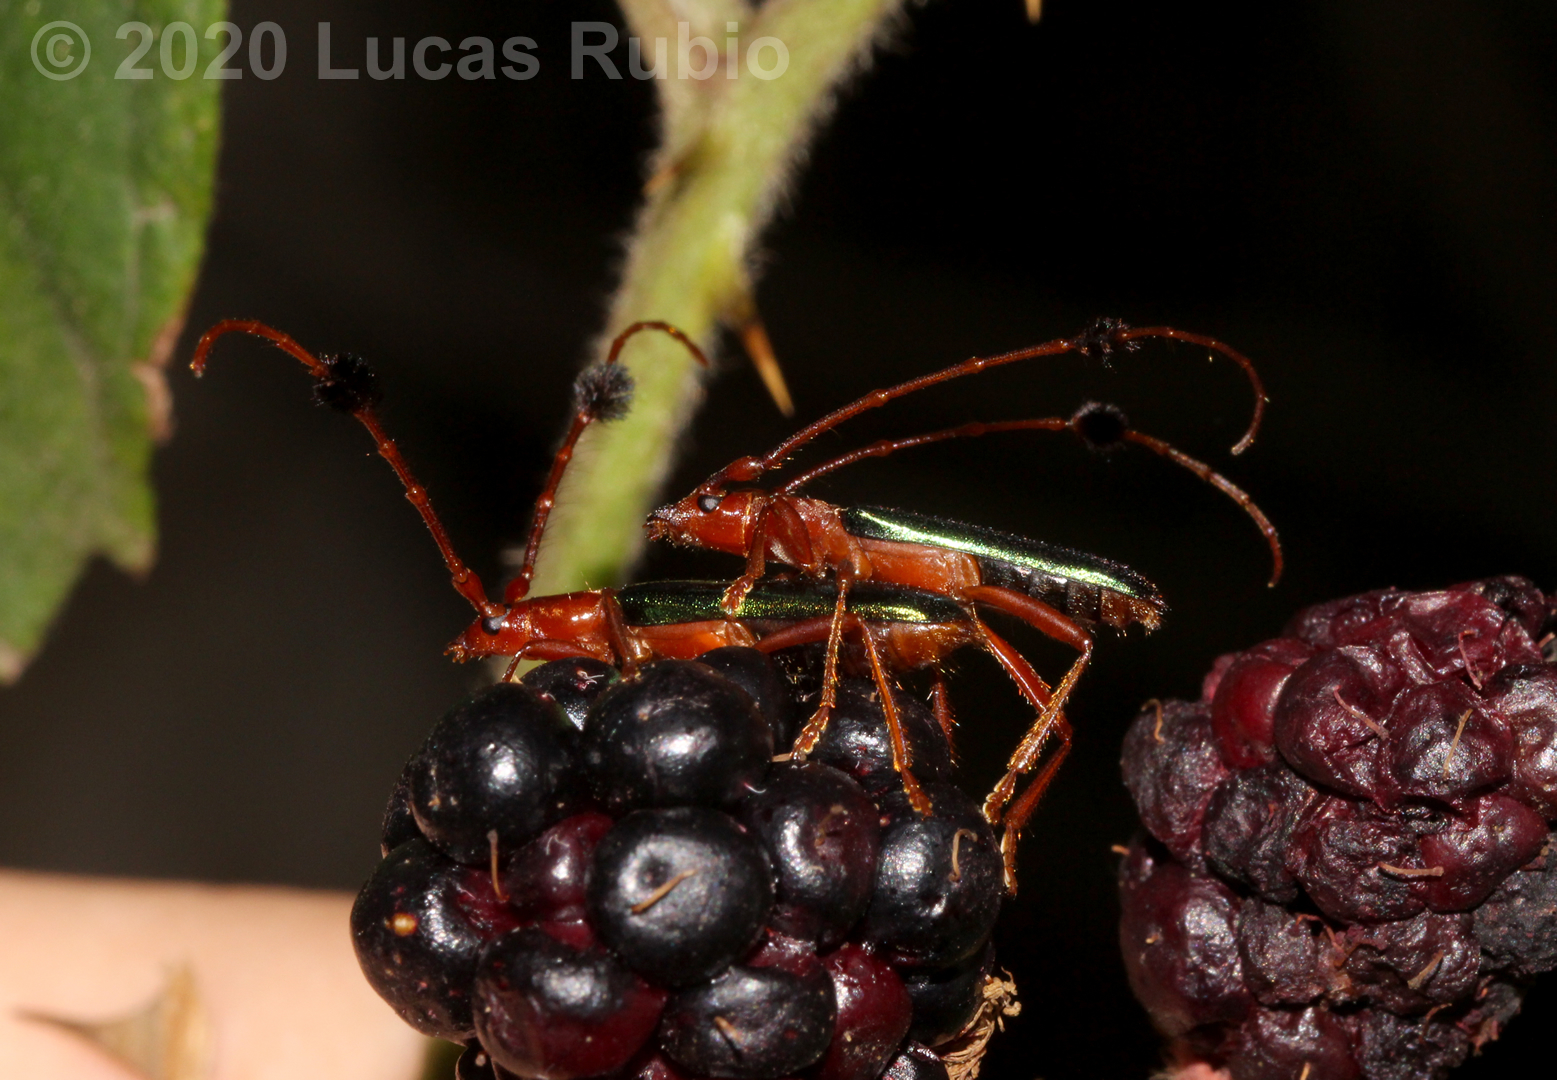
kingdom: Animalia
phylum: Arthropoda
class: Insecta
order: Coleoptera
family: Cerambycidae
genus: Compsocerus
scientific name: Compsocerus violaceus
